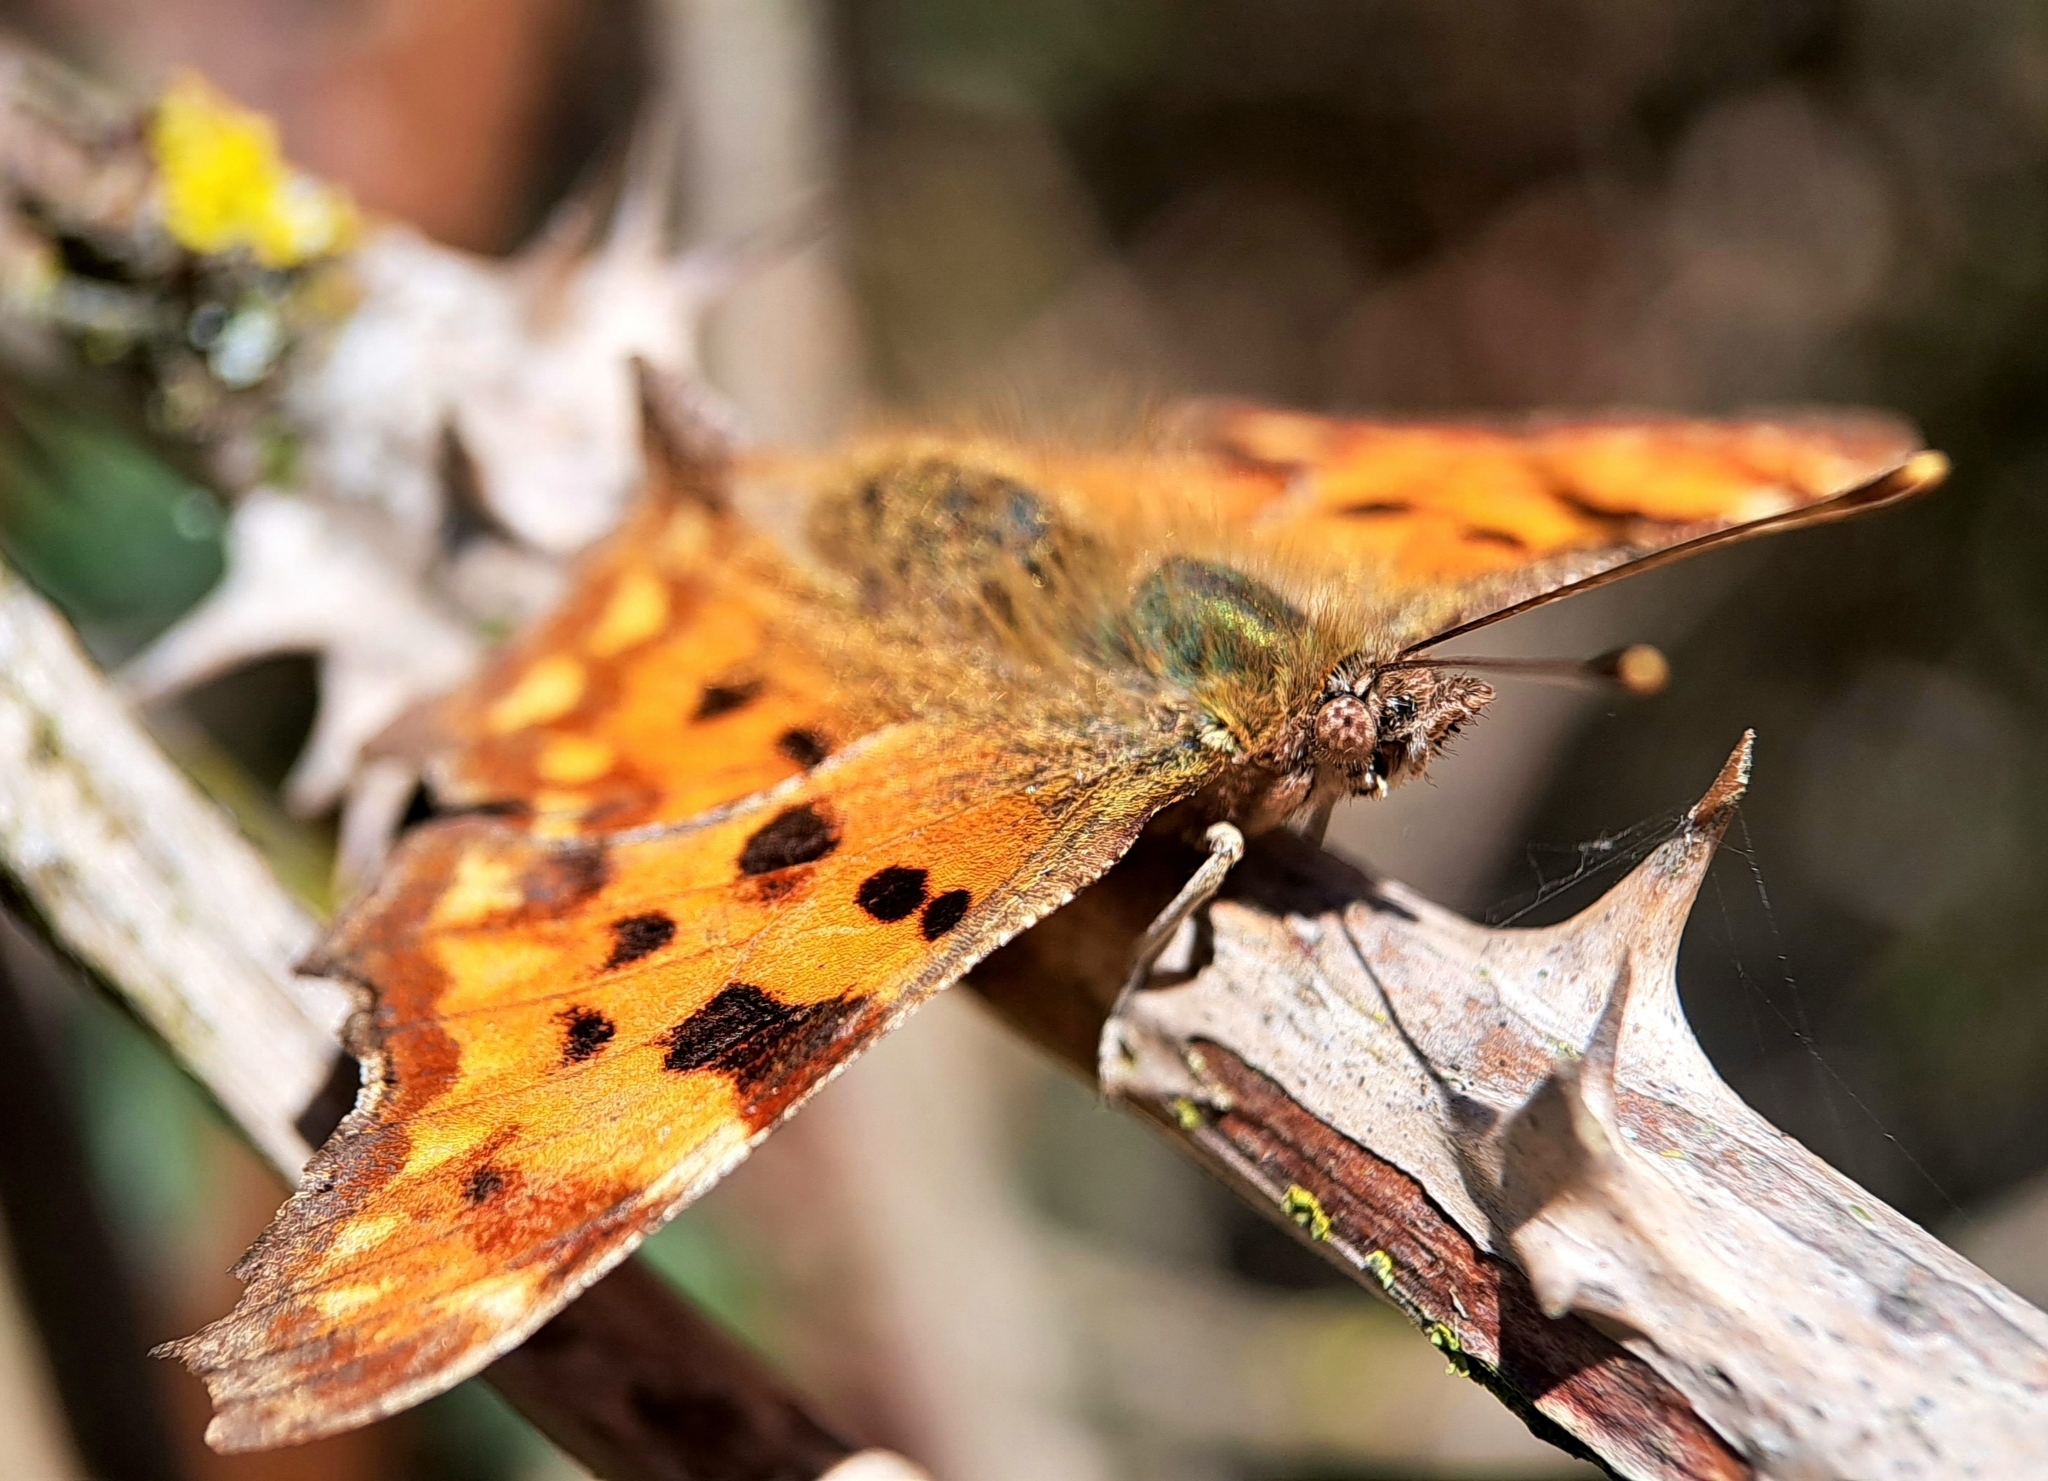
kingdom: Animalia
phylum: Arthropoda
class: Insecta
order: Lepidoptera
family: Nymphalidae
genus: Polygonia
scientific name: Polygonia c-album
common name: Comma
